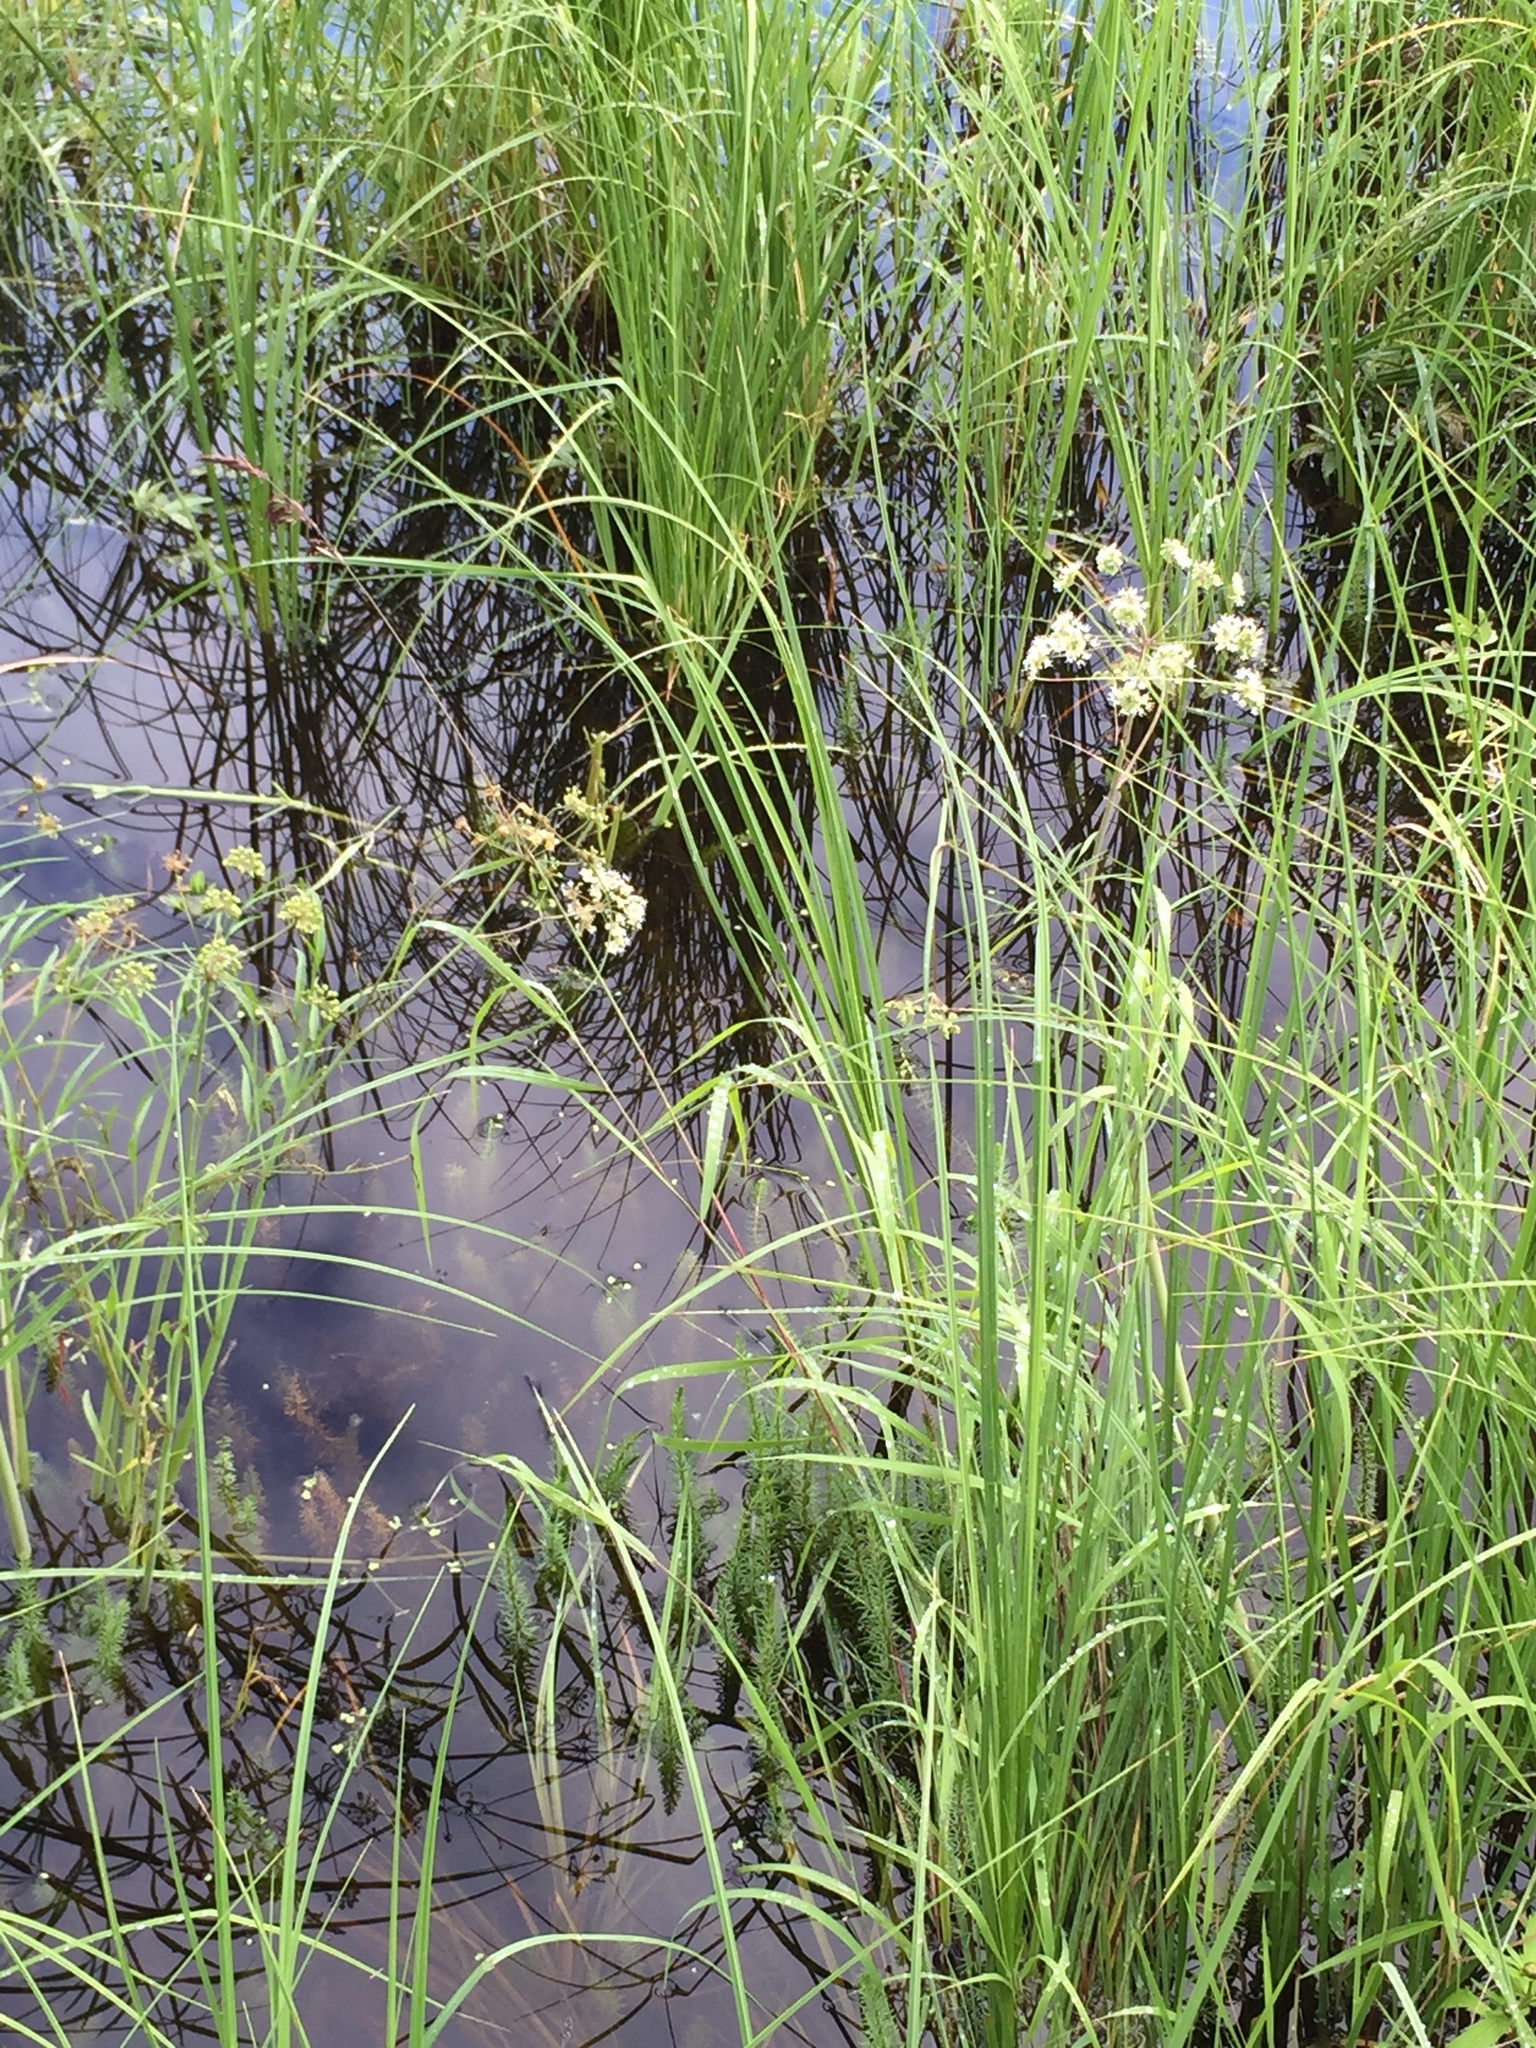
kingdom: Plantae
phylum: Tracheophyta
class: Magnoliopsida
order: Apiales
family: Apiaceae
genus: Cicuta
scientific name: Cicuta virosa
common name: Cowbane
